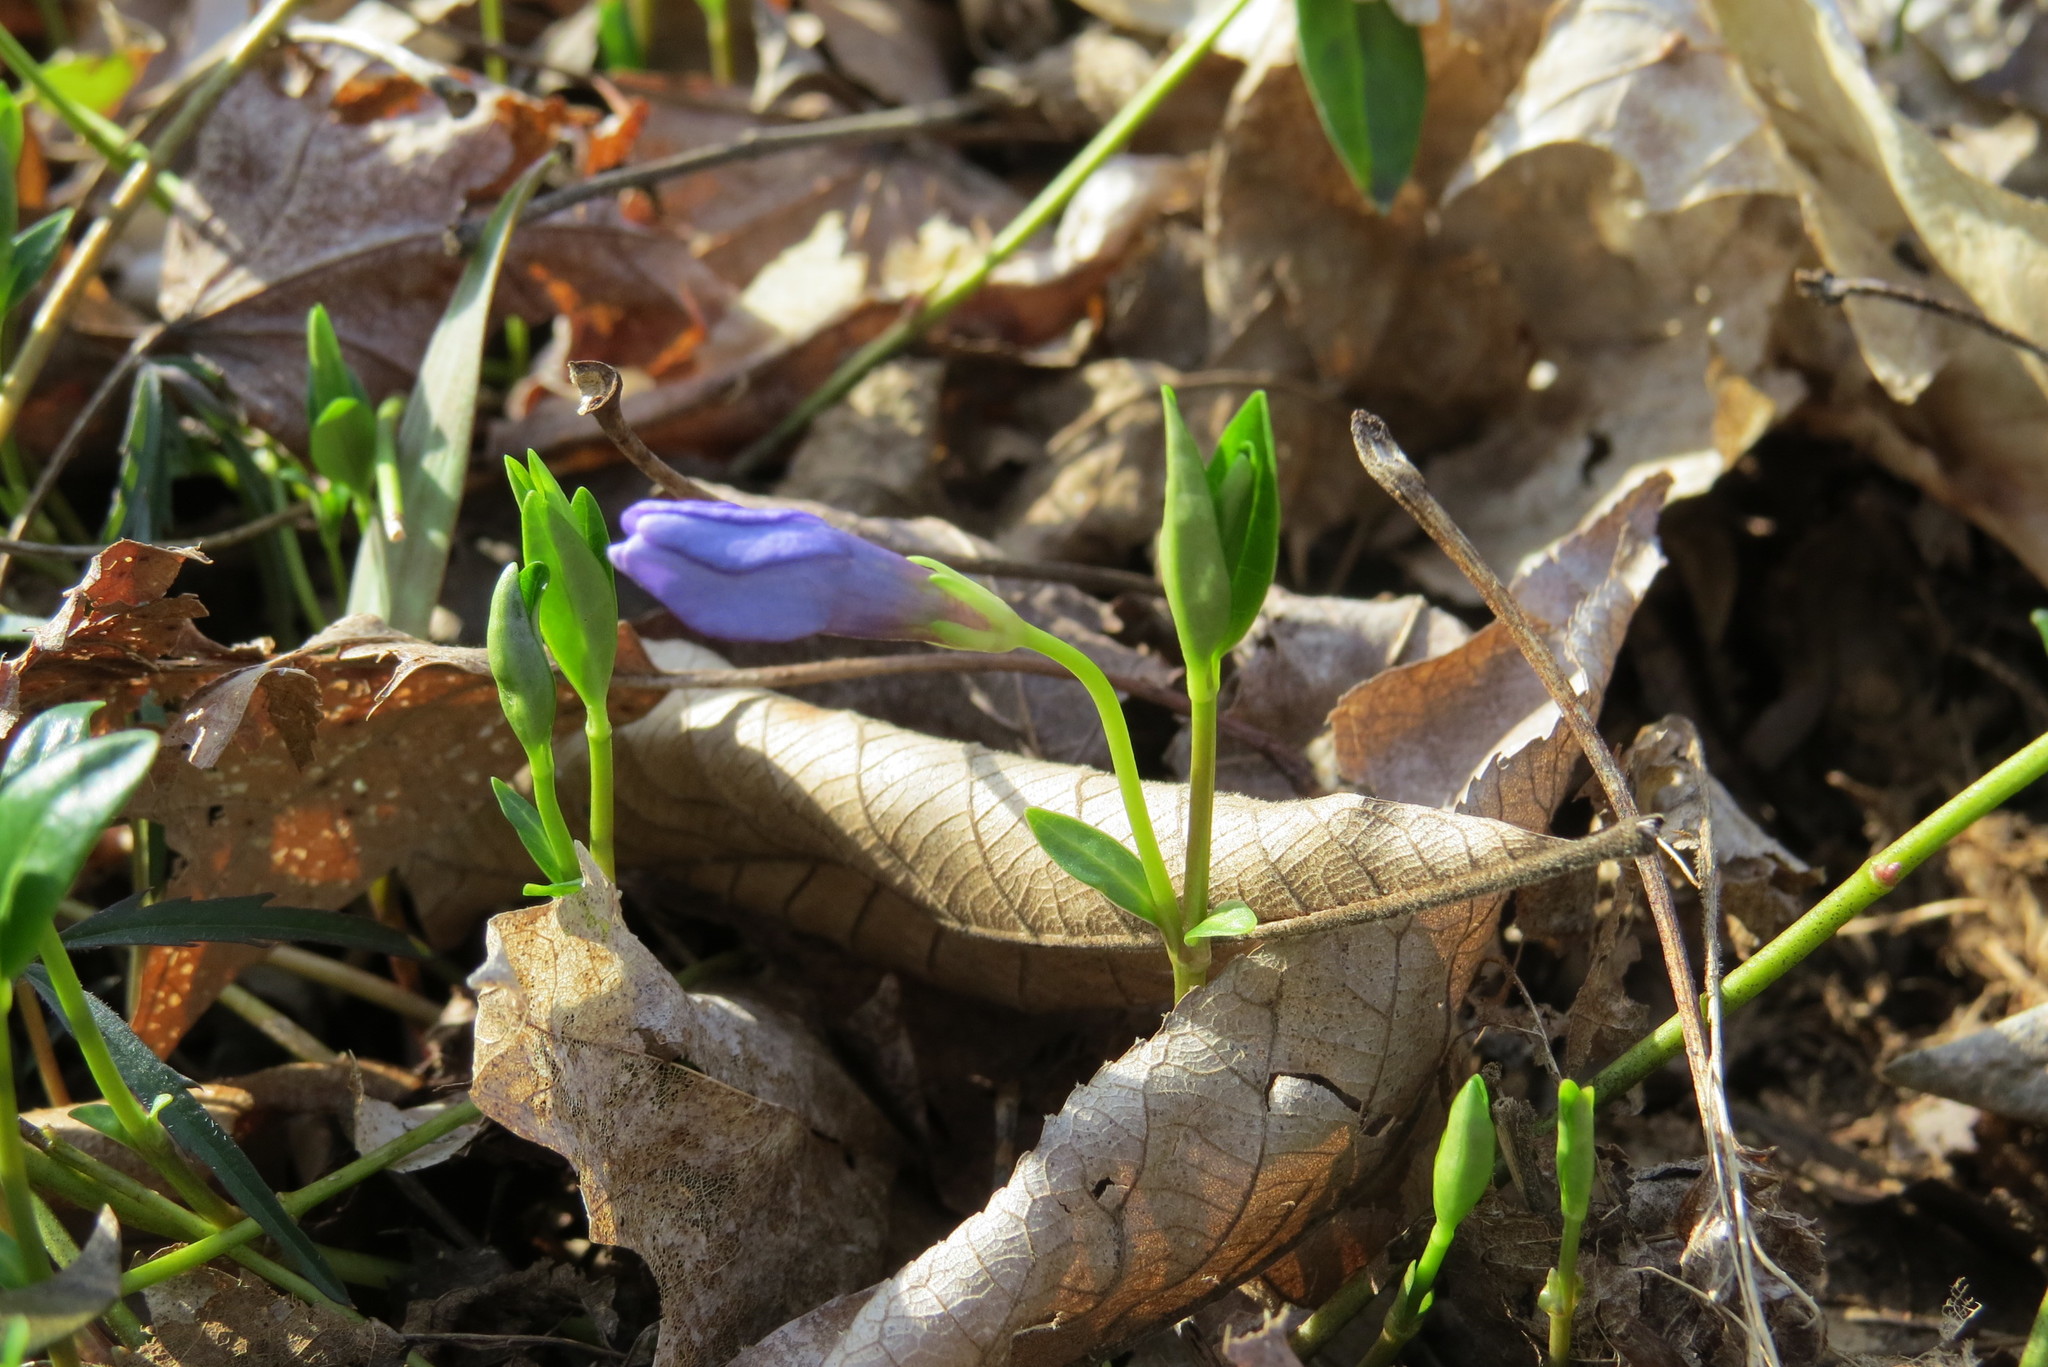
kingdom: Plantae
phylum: Tracheophyta
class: Magnoliopsida
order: Gentianales
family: Apocynaceae
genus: Vinca
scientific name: Vinca minor
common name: Lesser periwinkle
